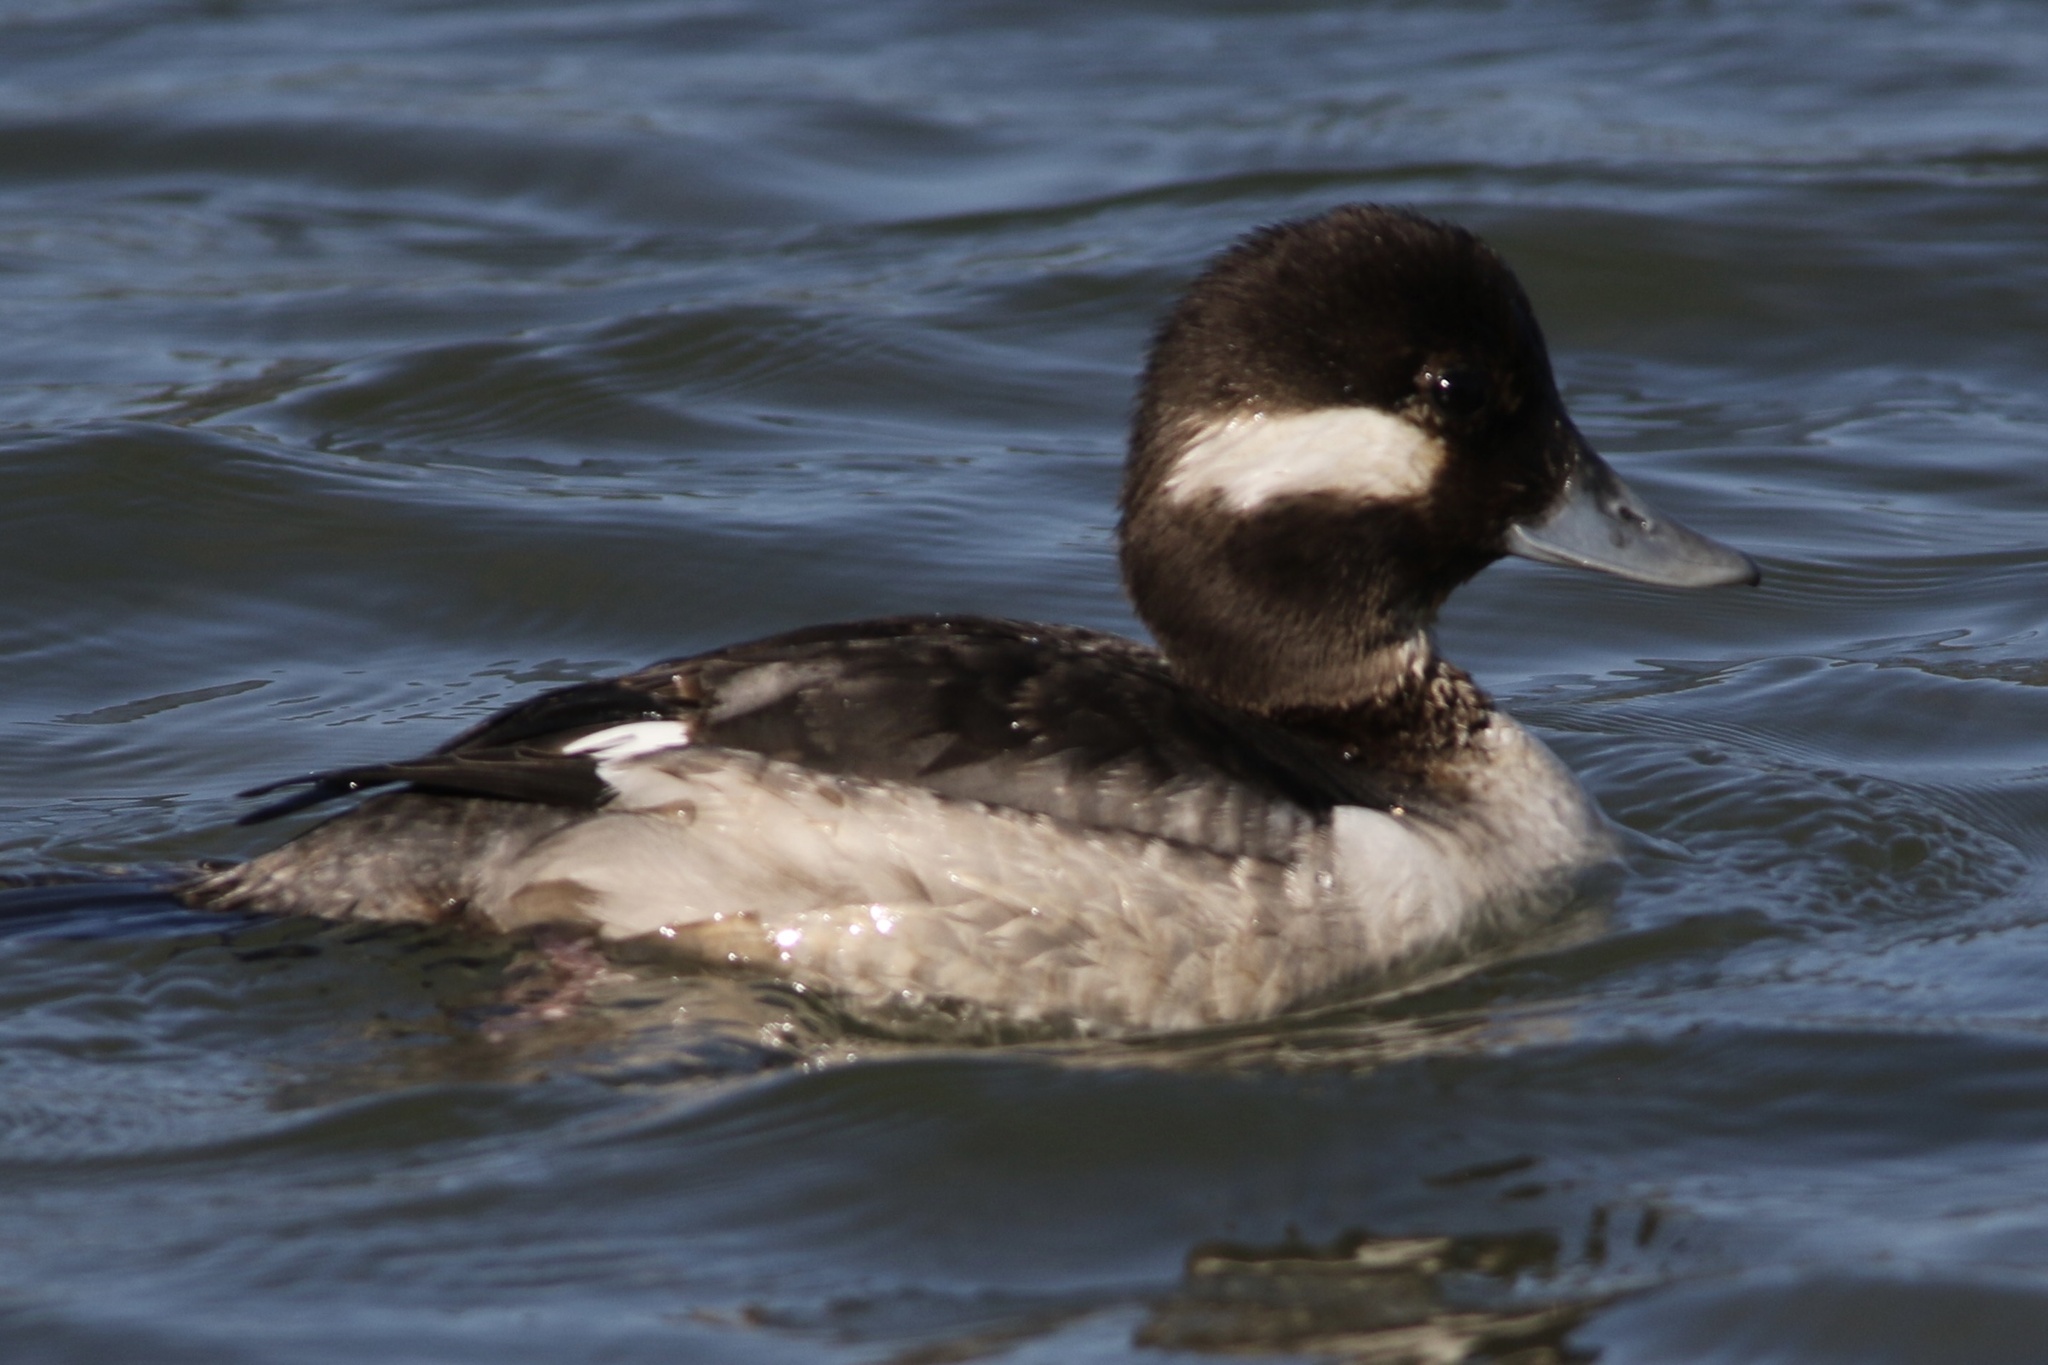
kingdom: Animalia
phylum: Chordata
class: Aves
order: Anseriformes
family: Anatidae
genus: Bucephala
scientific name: Bucephala albeola
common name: Bufflehead
